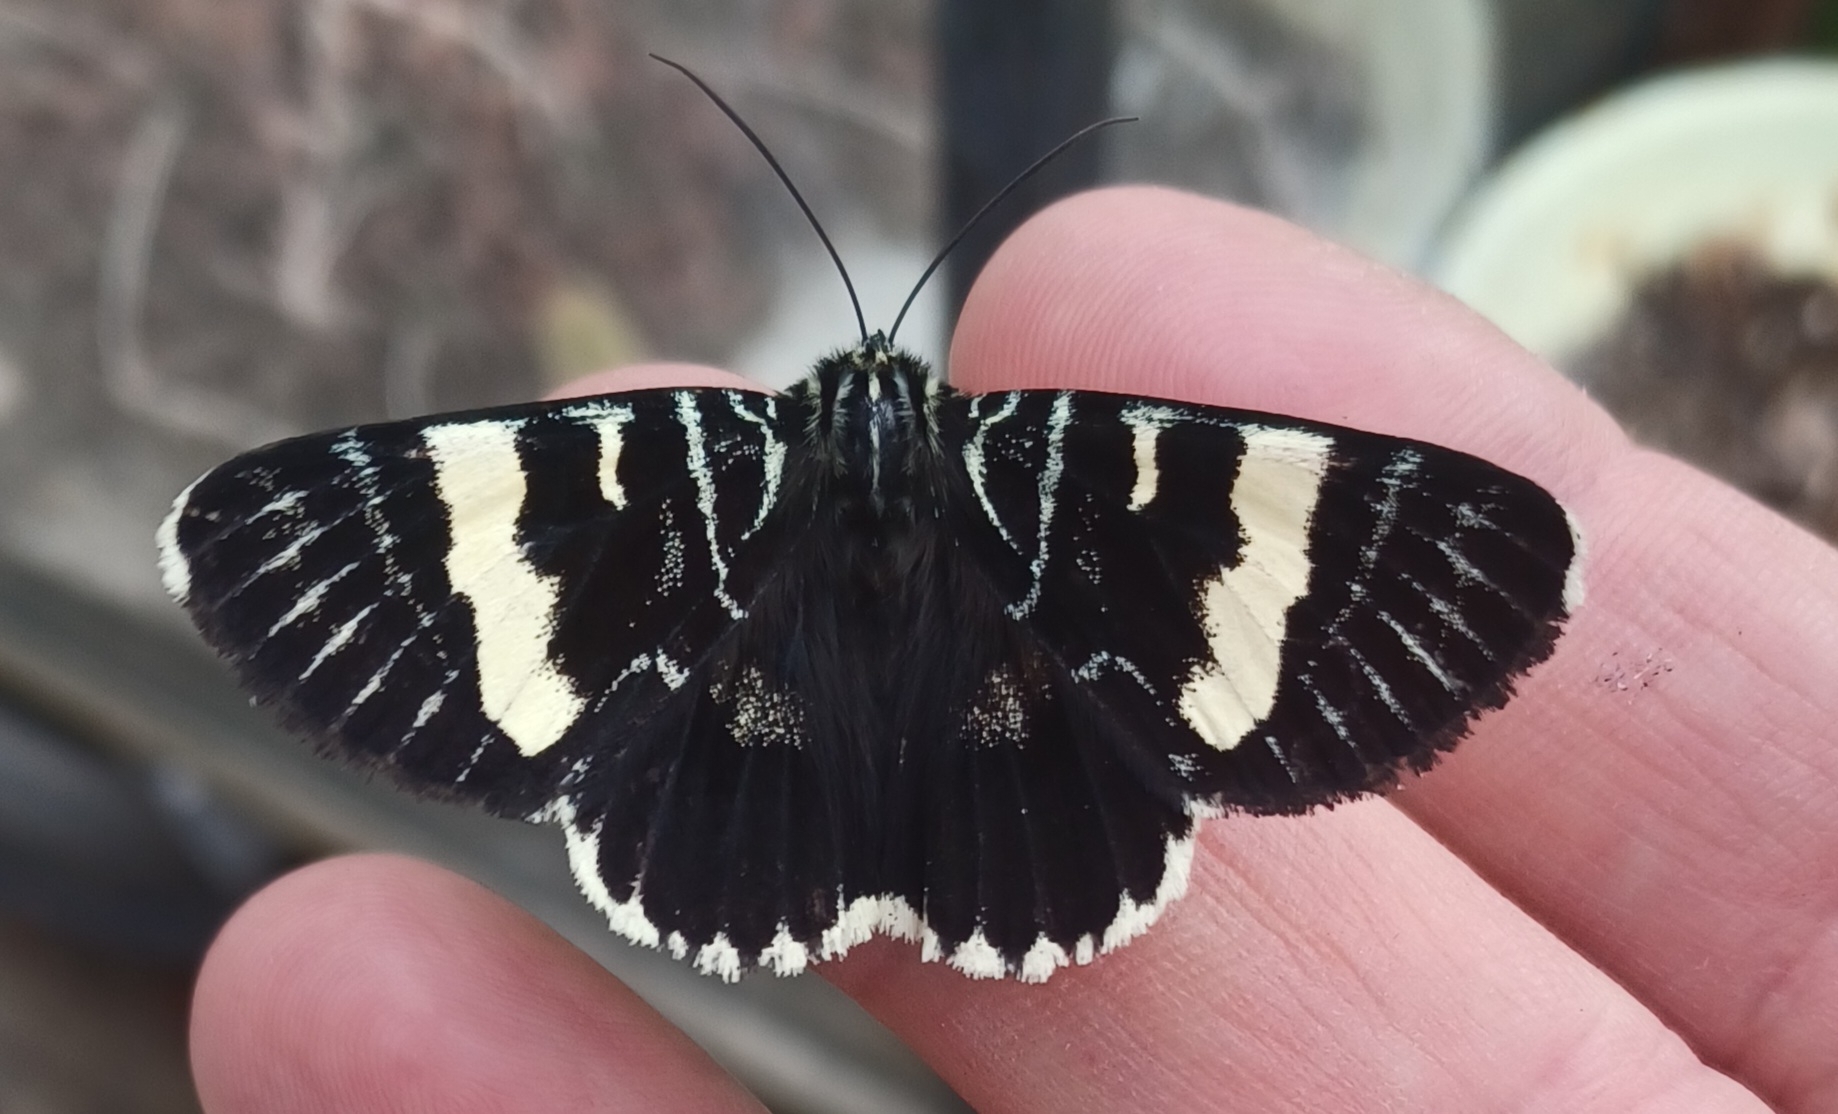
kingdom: Animalia
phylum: Arthropoda
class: Insecta
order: Lepidoptera
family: Noctuidae
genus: Phalaenoides
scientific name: Phalaenoides glycinae
